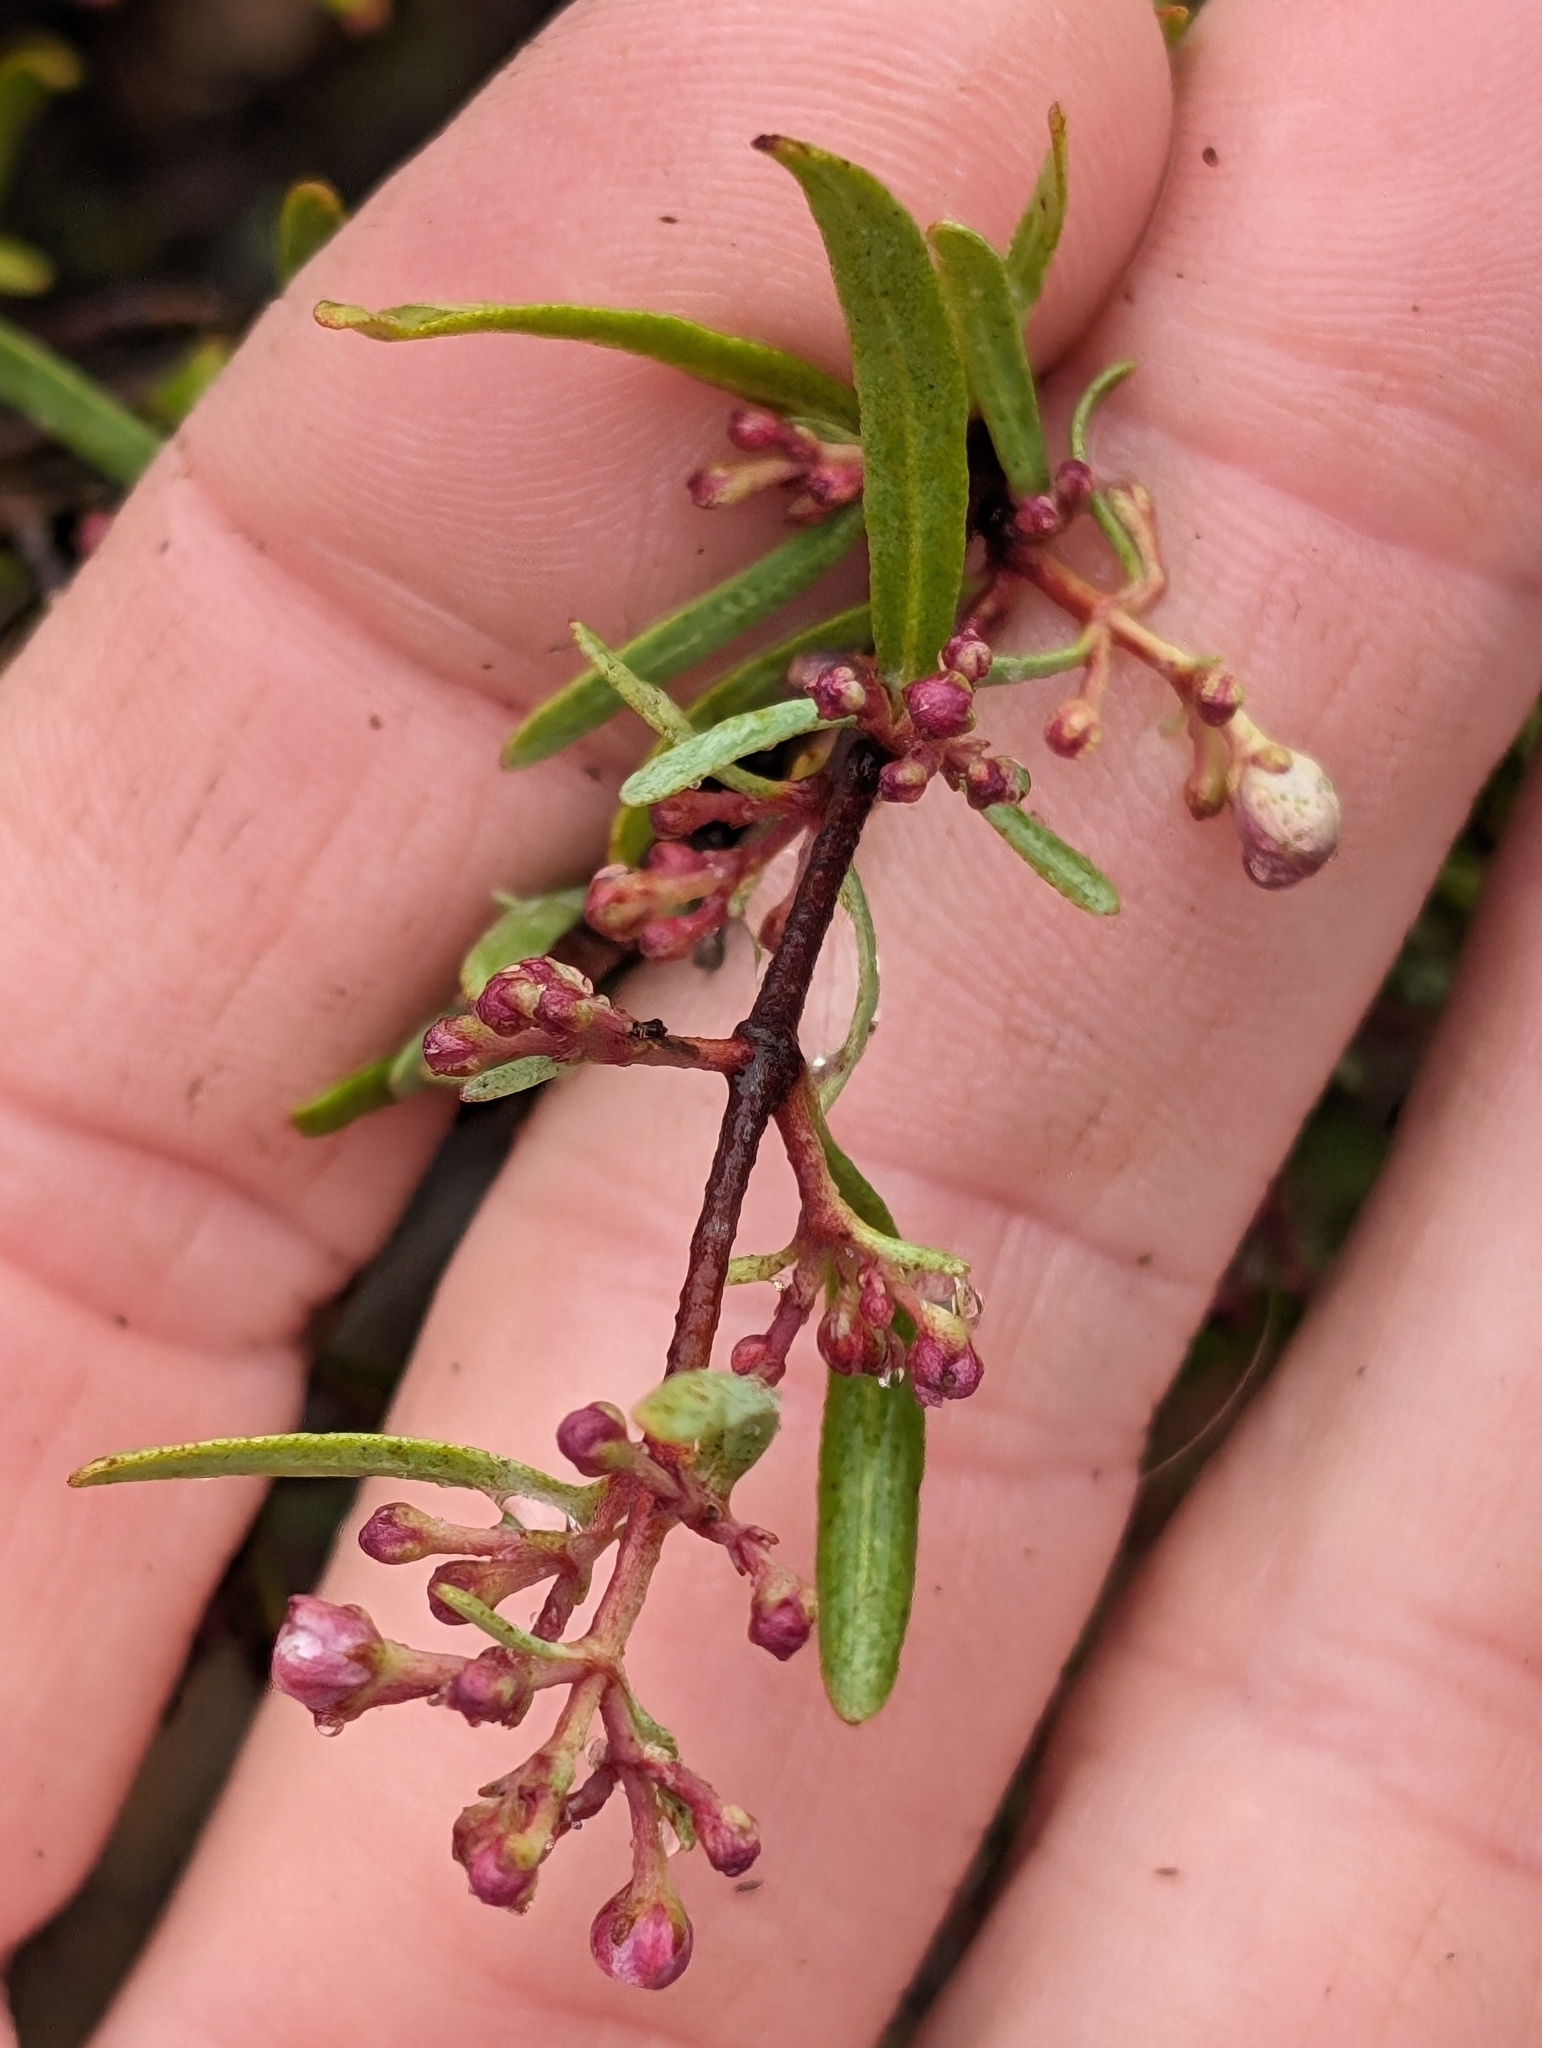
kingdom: Plantae
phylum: Tracheophyta
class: Magnoliopsida
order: Sapindales
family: Rutaceae
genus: Cneoridium
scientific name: Cneoridium dumosum
